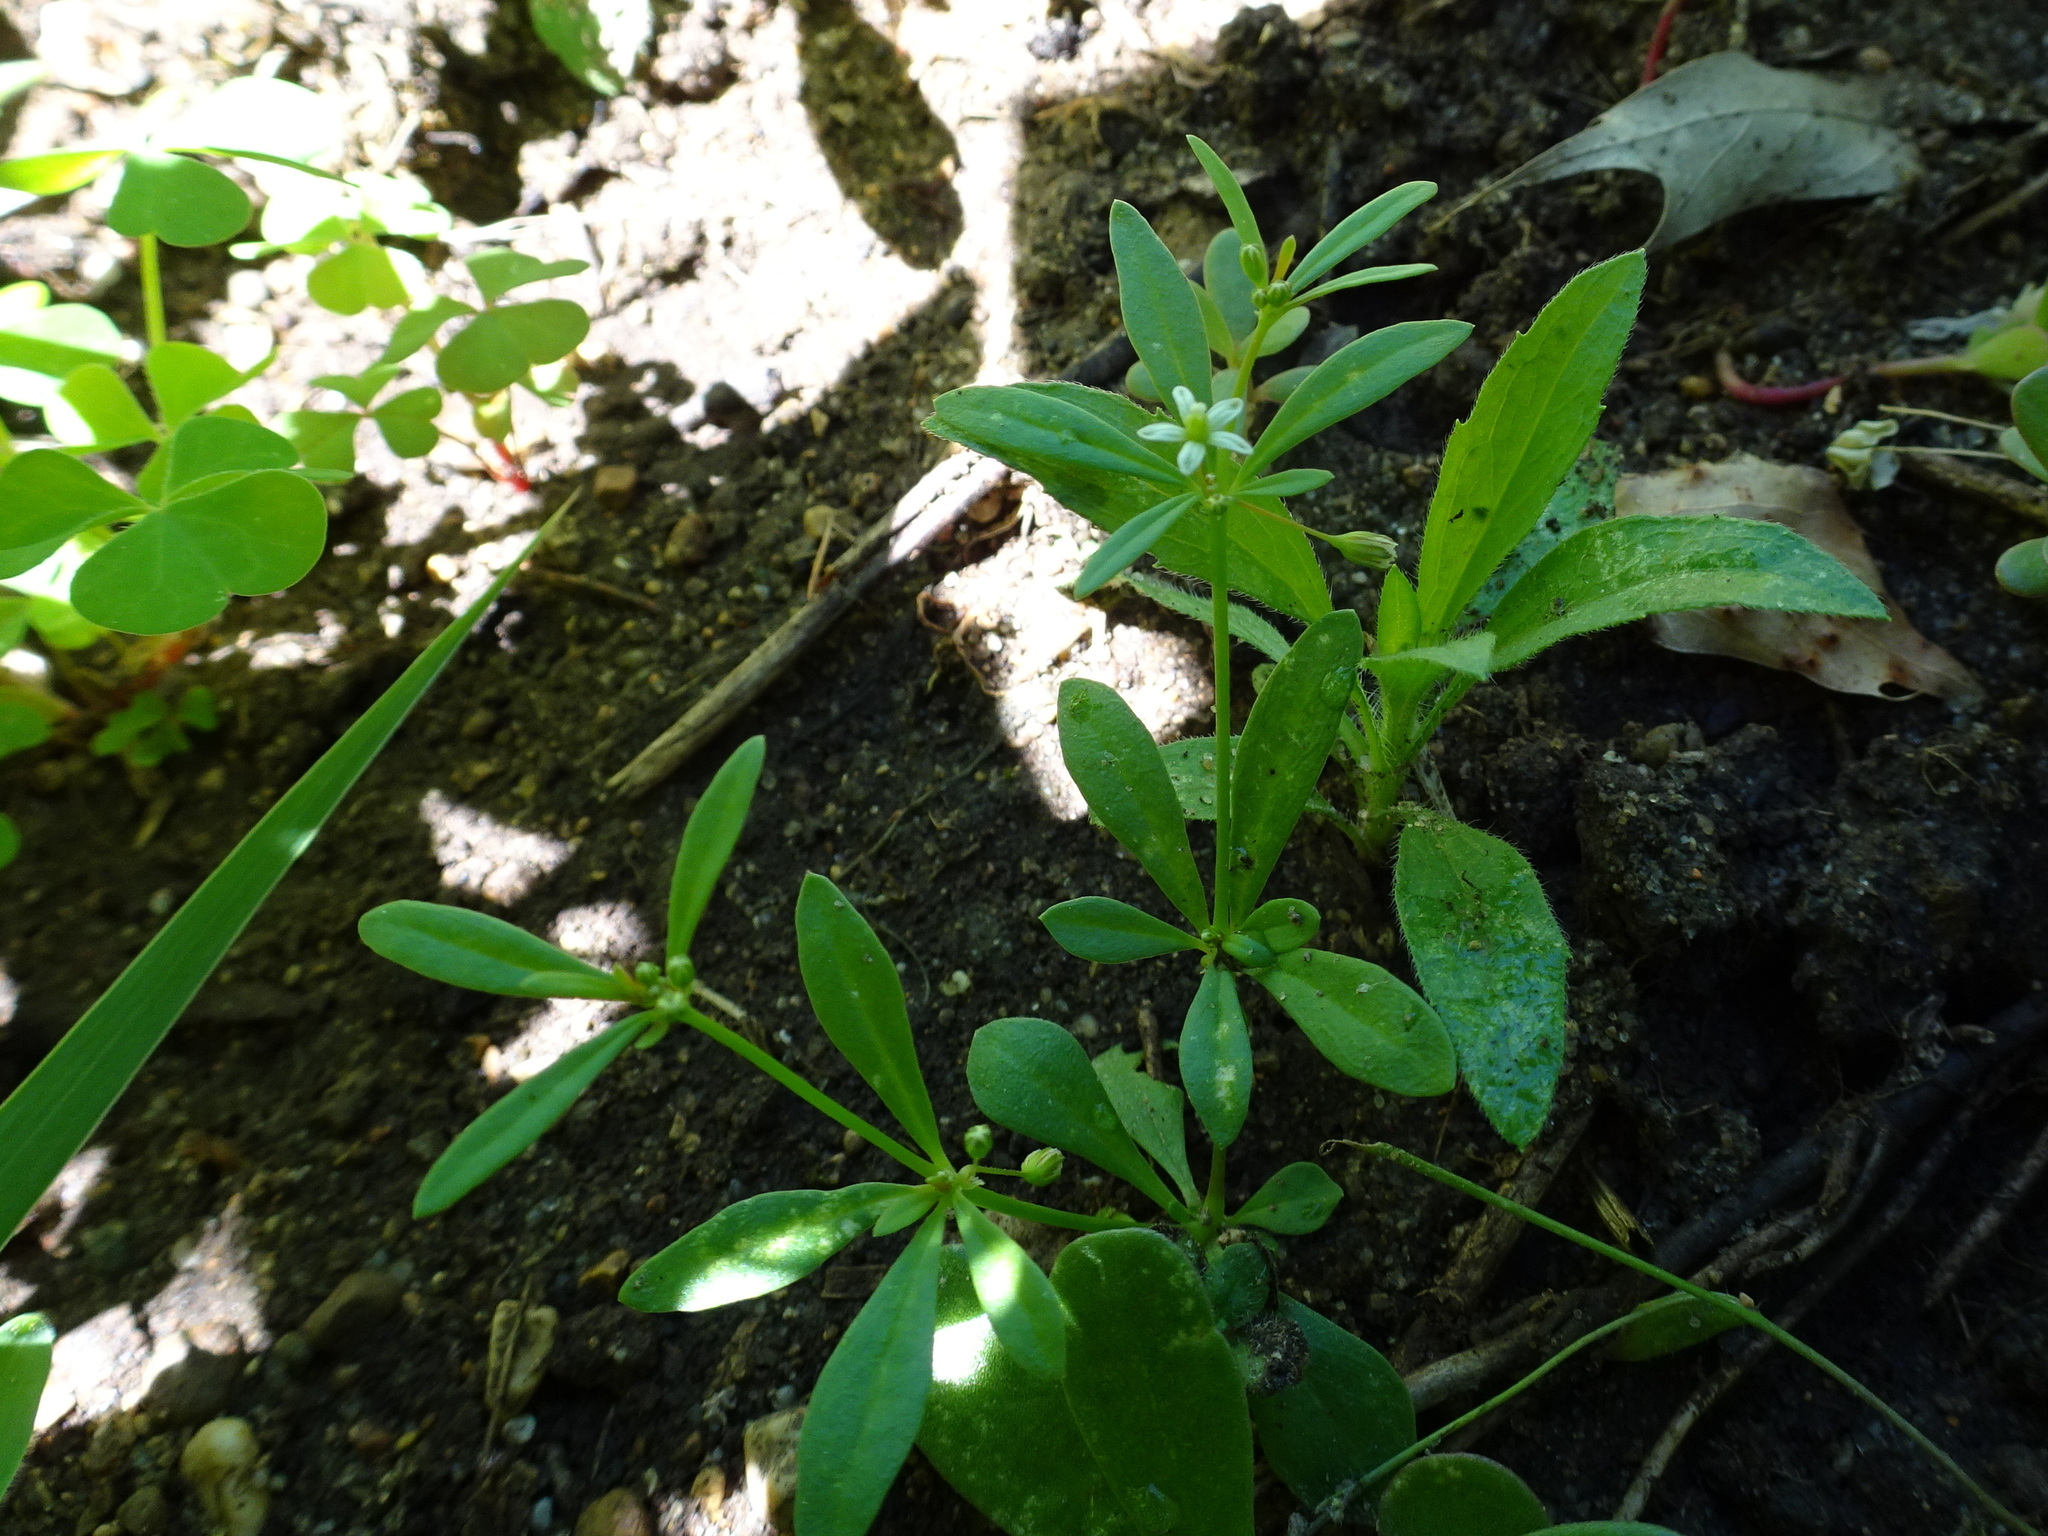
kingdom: Plantae
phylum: Tracheophyta
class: Magnoliopsida
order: Caryophyllales
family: Molluginaceae
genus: Mollugo
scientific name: Mollugo verticillata
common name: Green carpetweed
